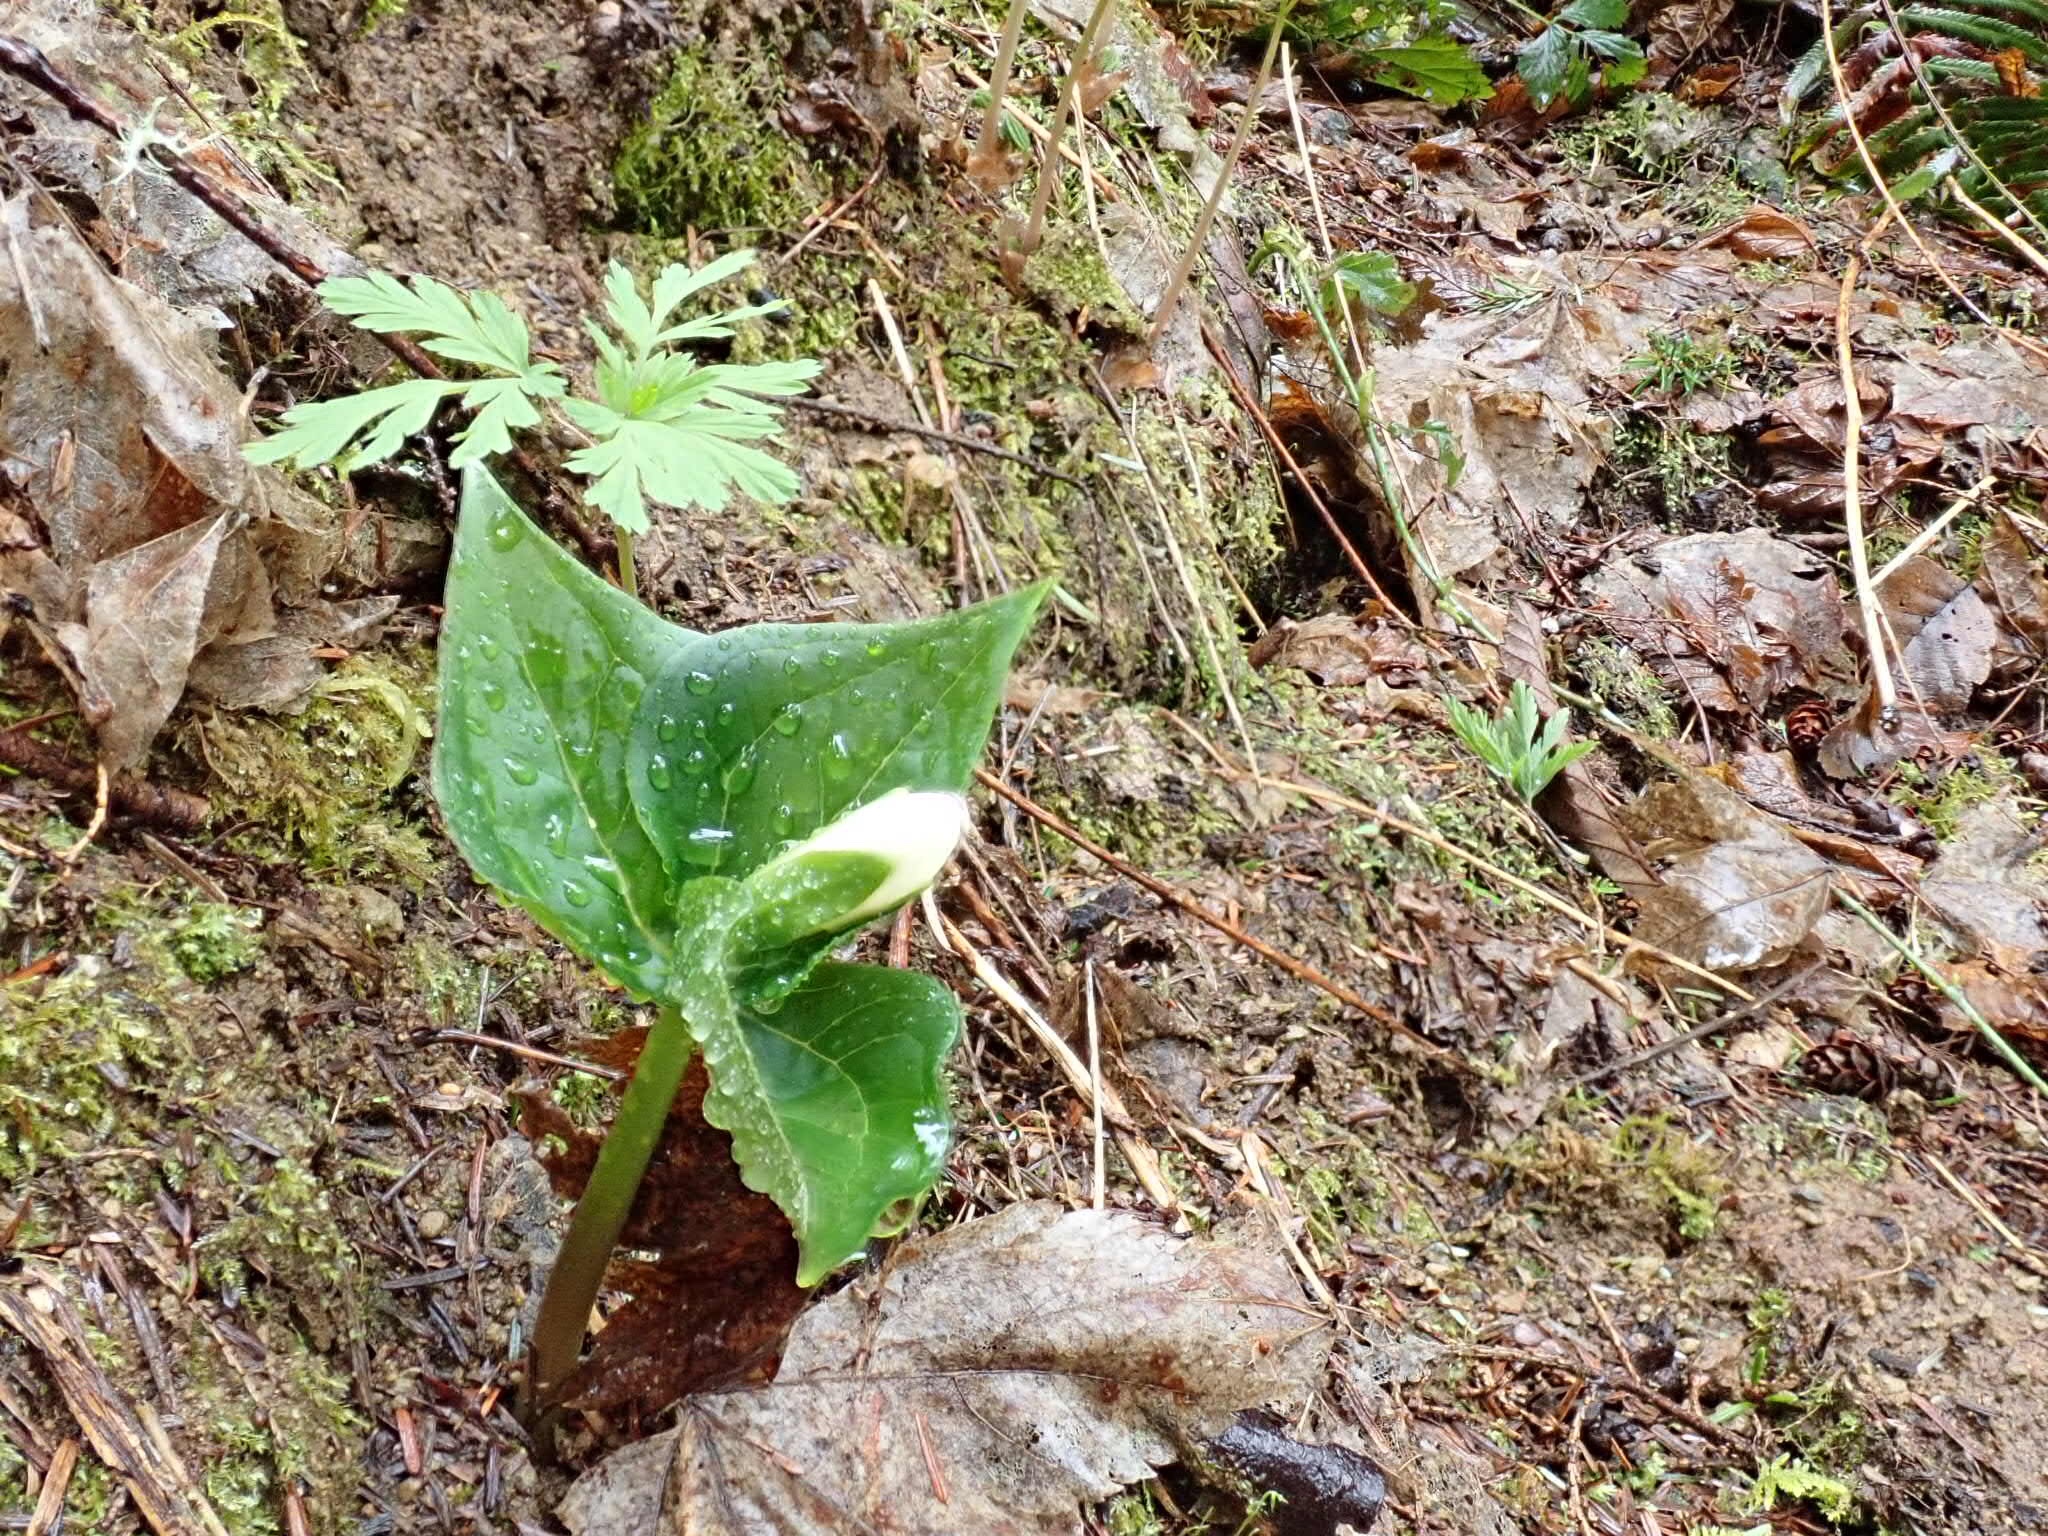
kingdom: Plantae
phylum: Tracheophyta
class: Liliopsida
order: Liliales
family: Melanthiaceae
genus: Trillium
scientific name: Trillium ovatum
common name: Pacific trillium
